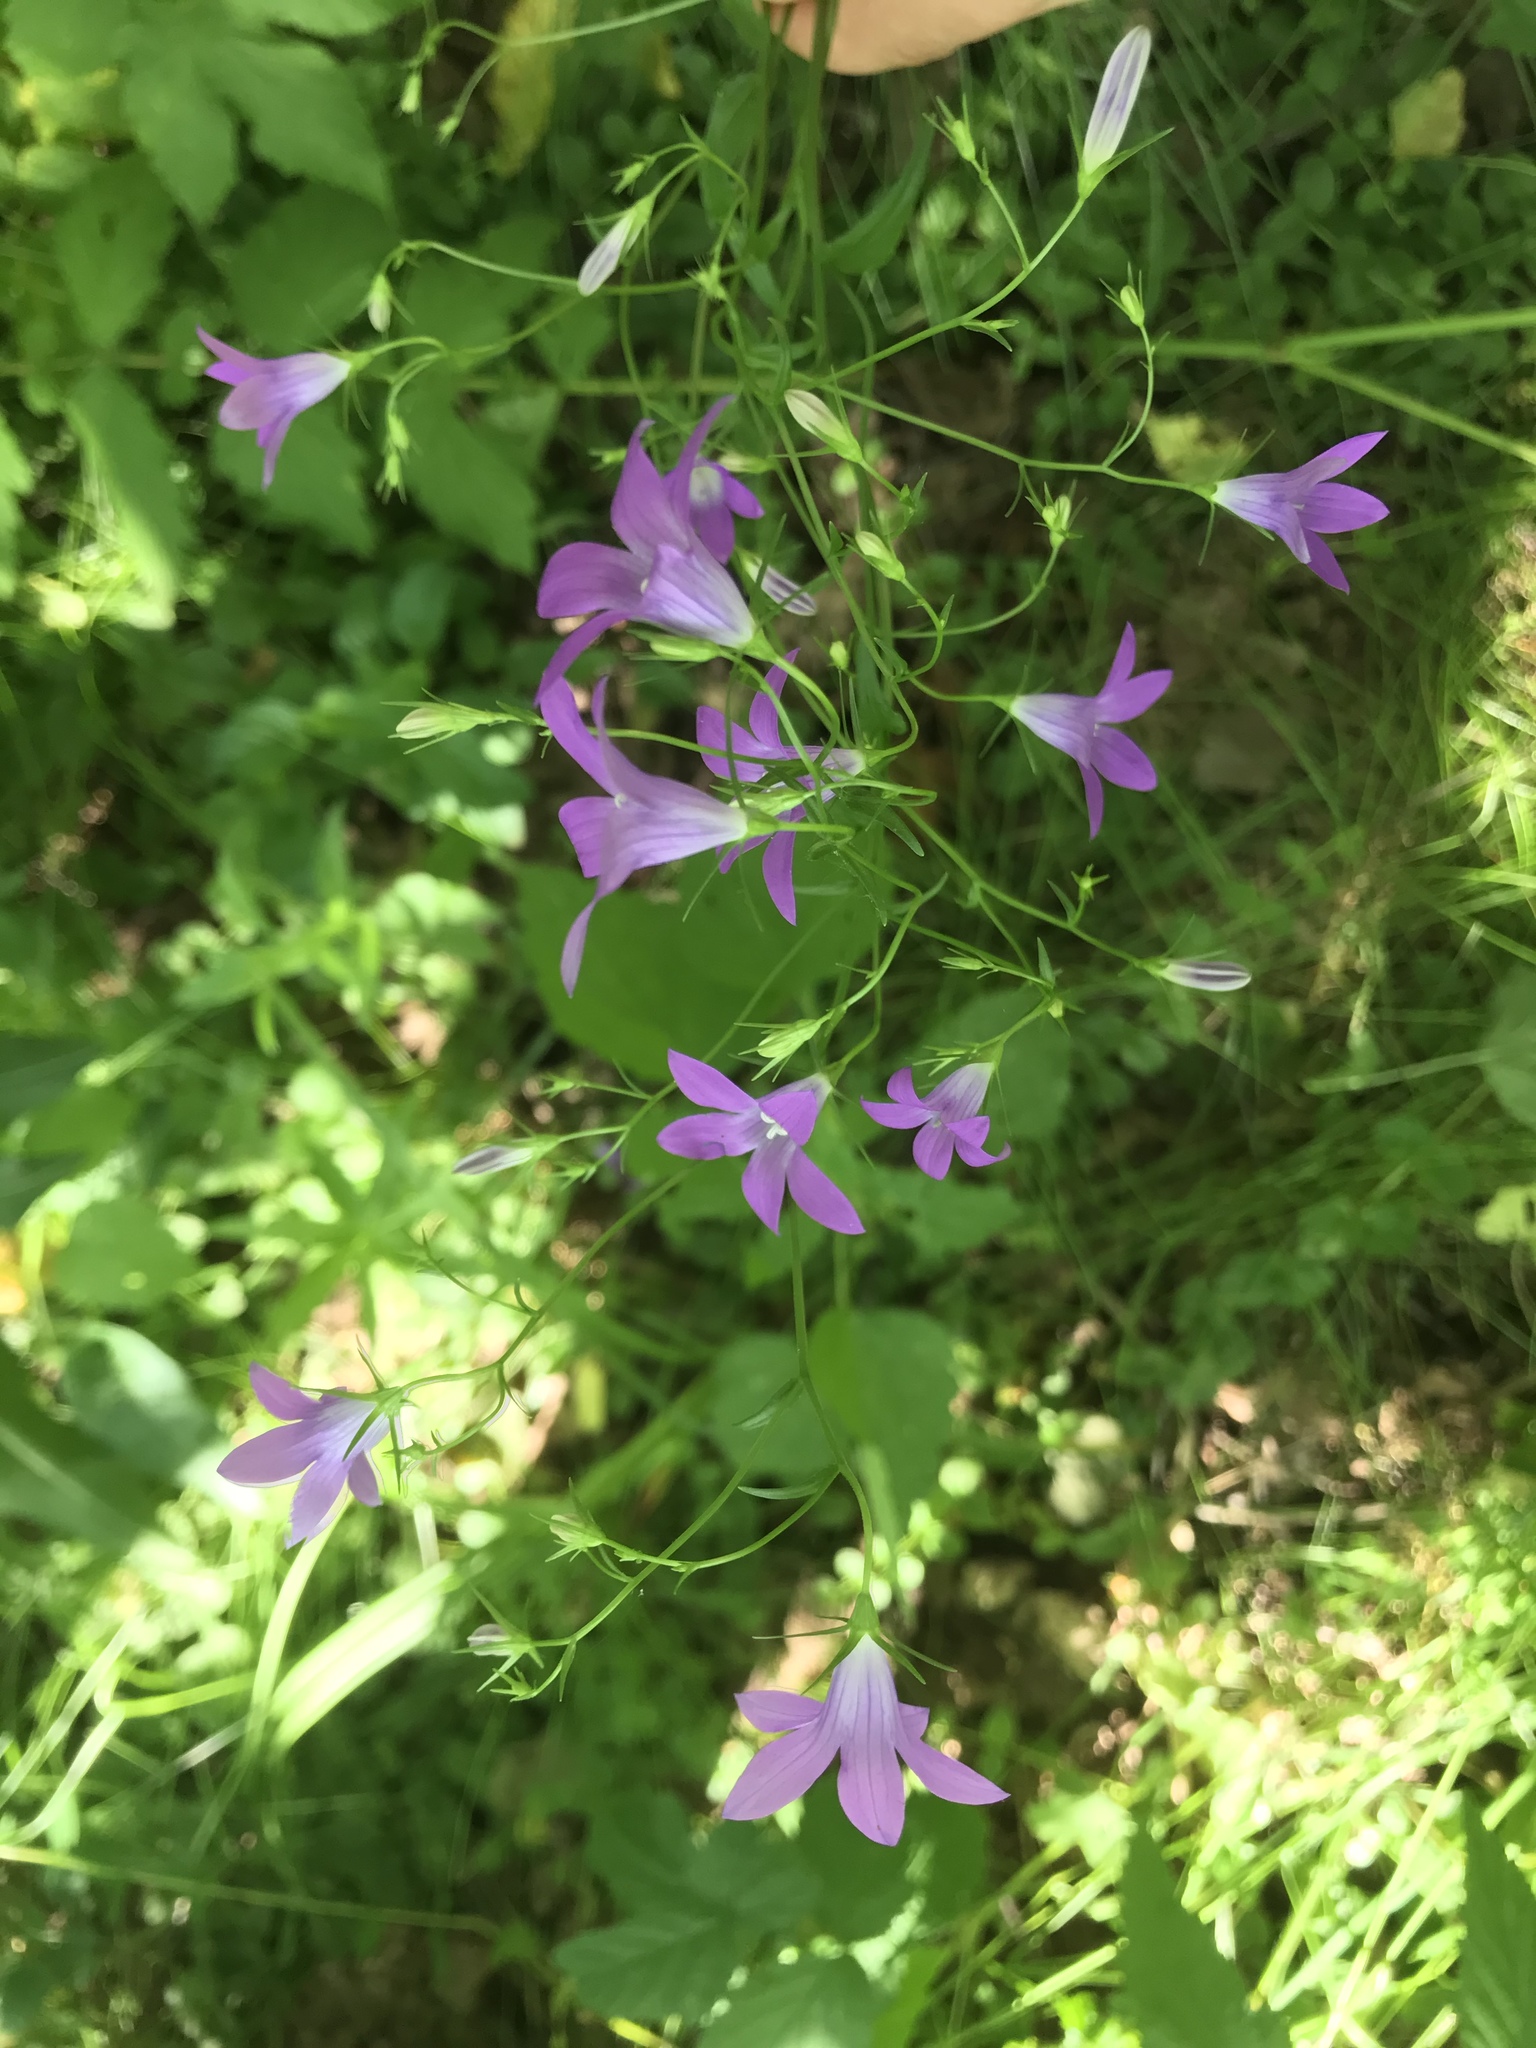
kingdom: Plantae
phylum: Tracheophyta
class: Magnoliopsida
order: Asterales
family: Campanulaceae
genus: Campanula
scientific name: Campanula patula
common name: Spreading bellflower
